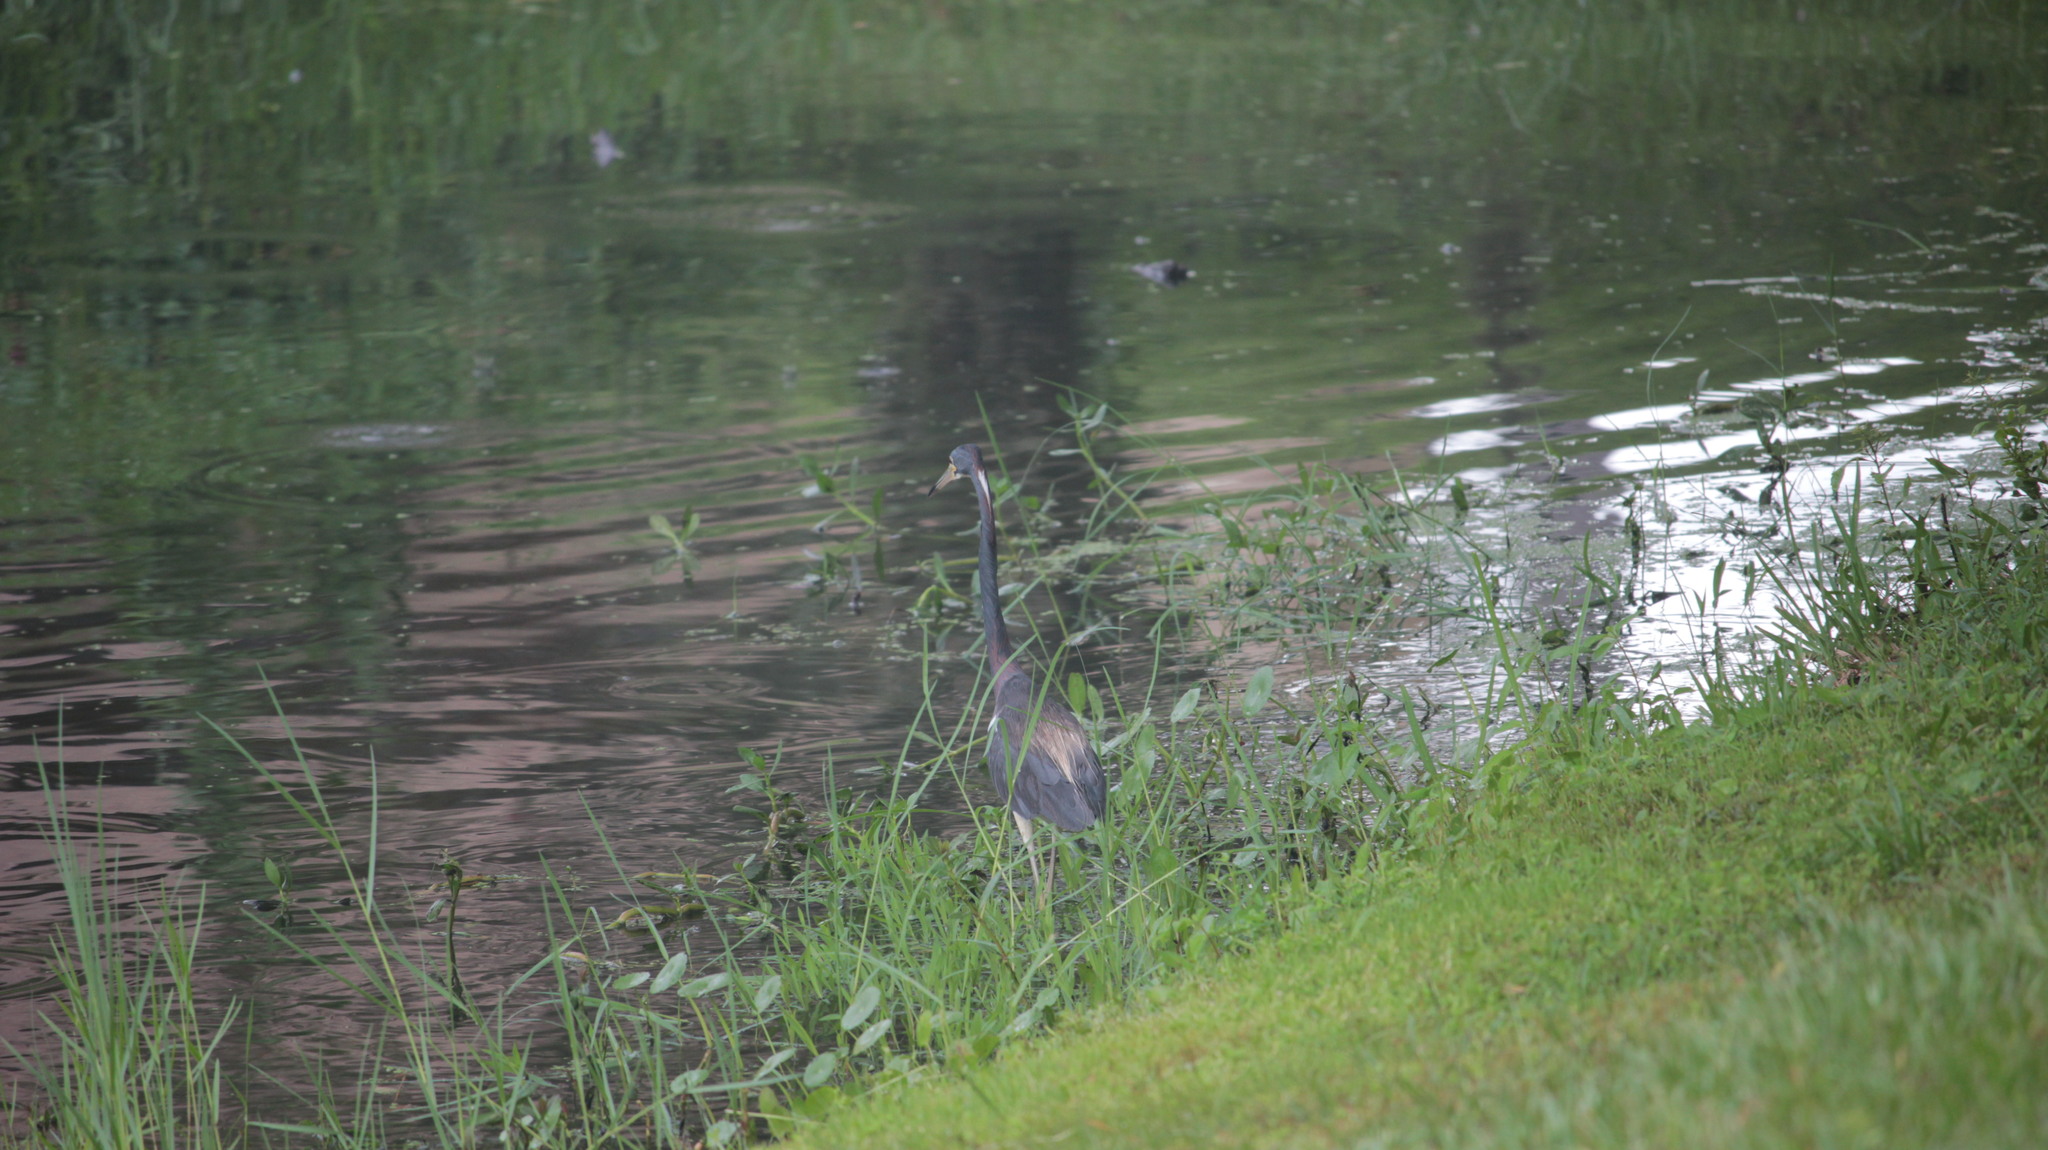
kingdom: Animalia
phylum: Chordata
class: Aves
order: Pelecaniformes
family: Ardeidae
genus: Egretta
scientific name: Egretta tricolor
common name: Tricolored heron
